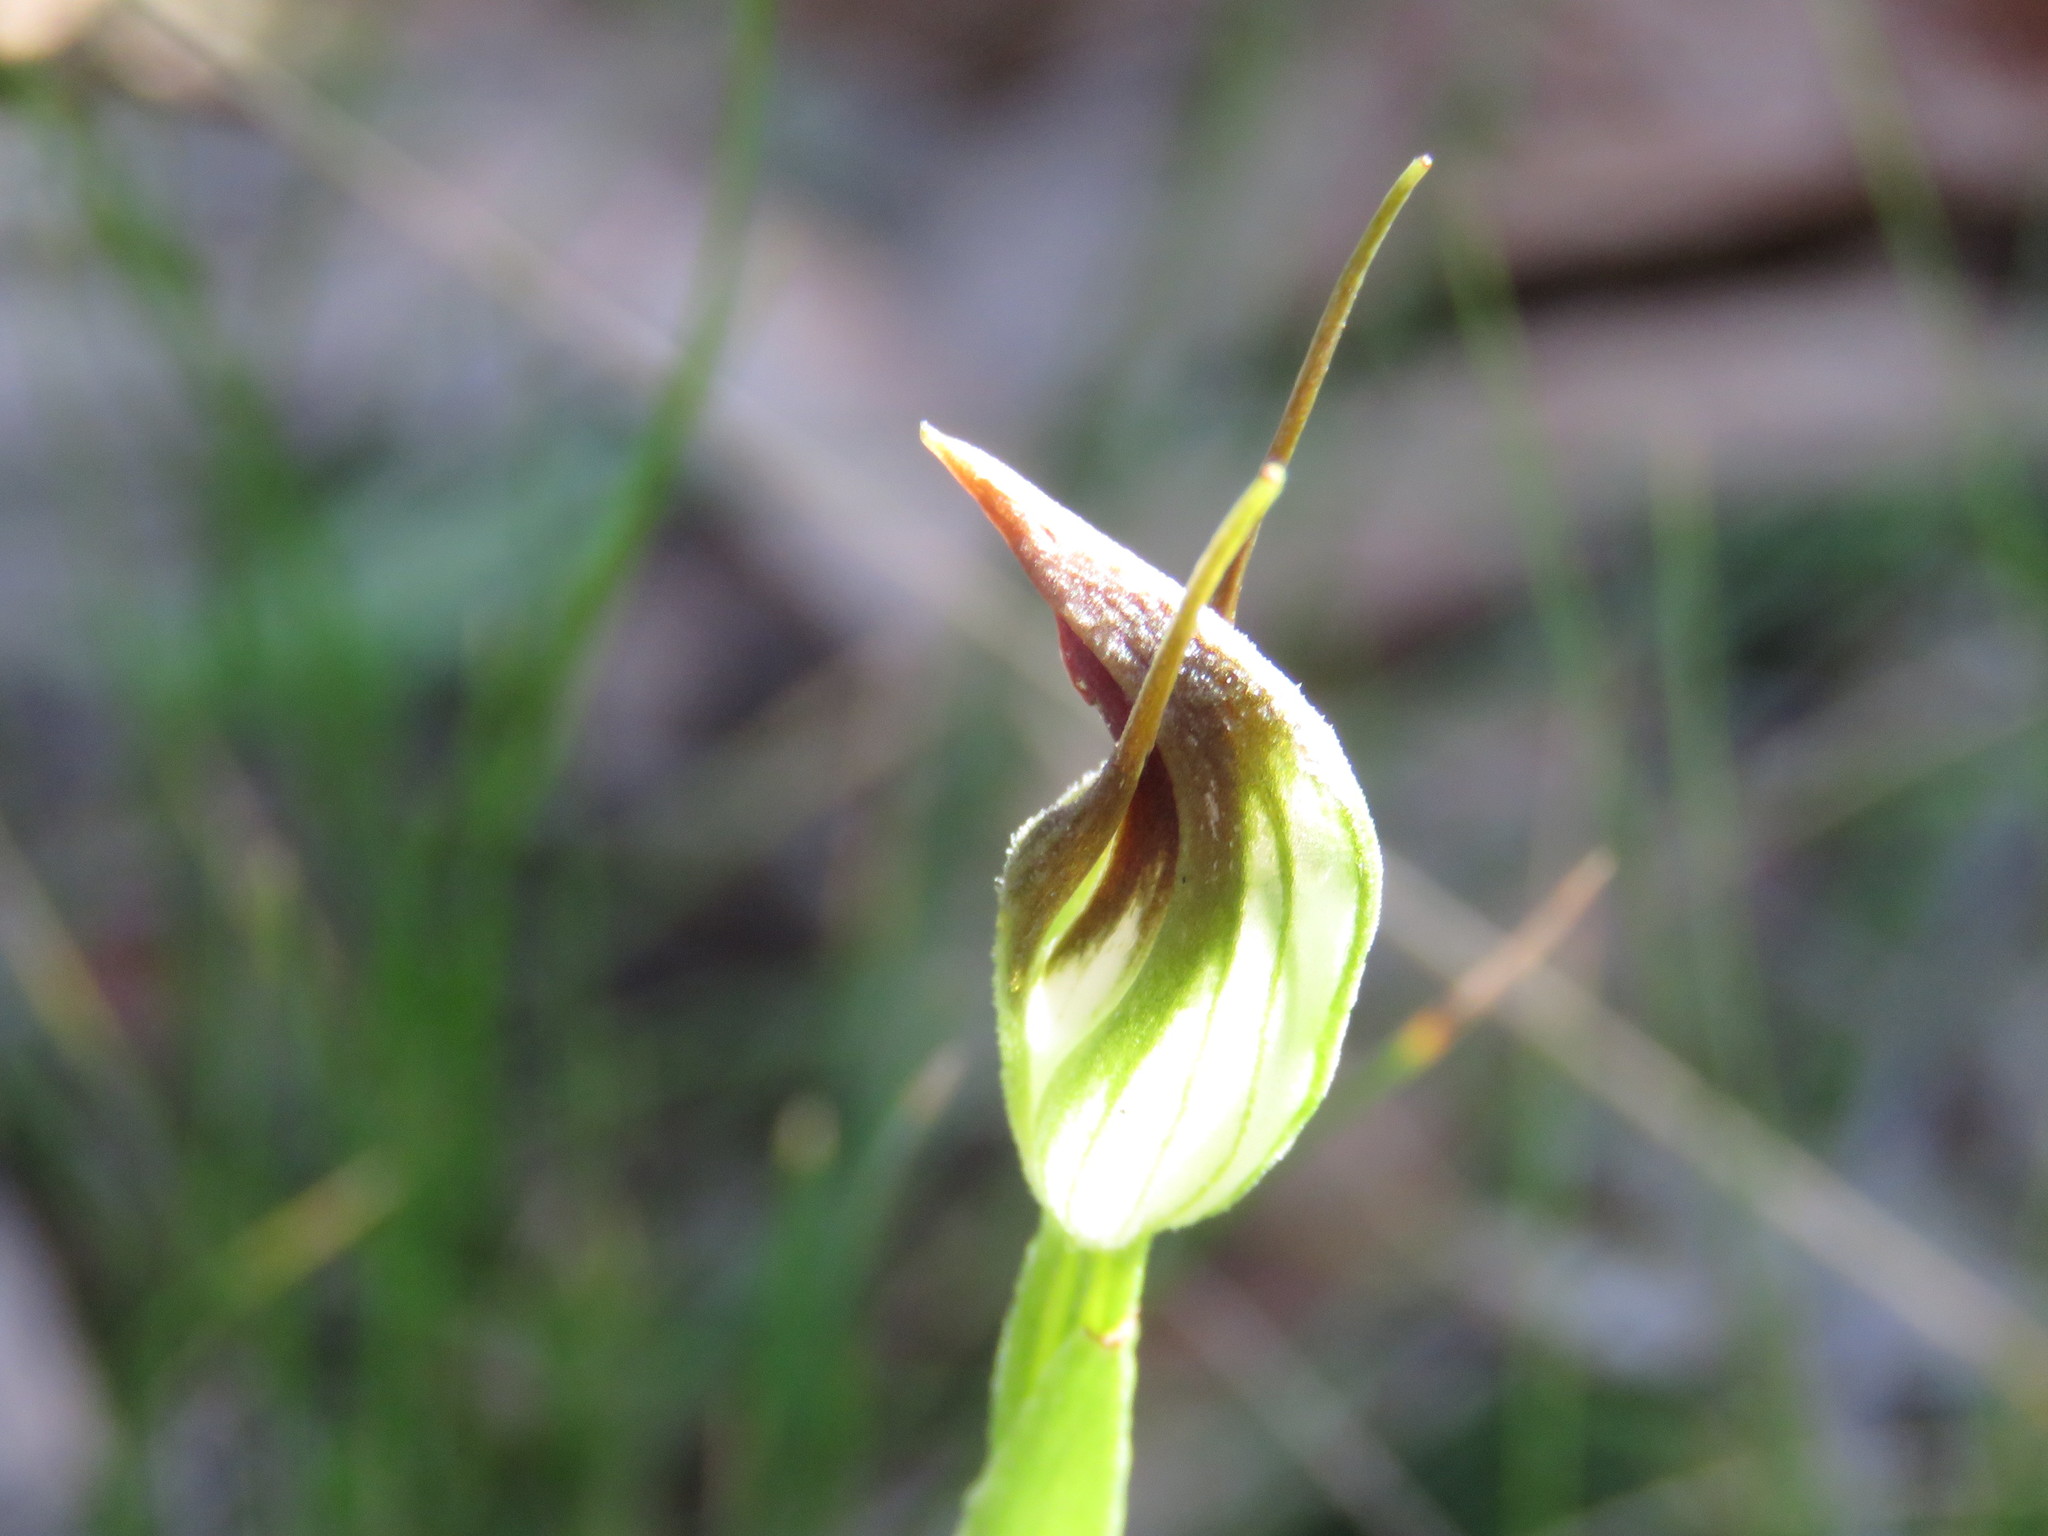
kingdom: Plantae
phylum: Tracheophyta
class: Liliopsida
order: Asparagales
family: Orchidaceae
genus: Pterostylis
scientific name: Pterostylis pedunculata
